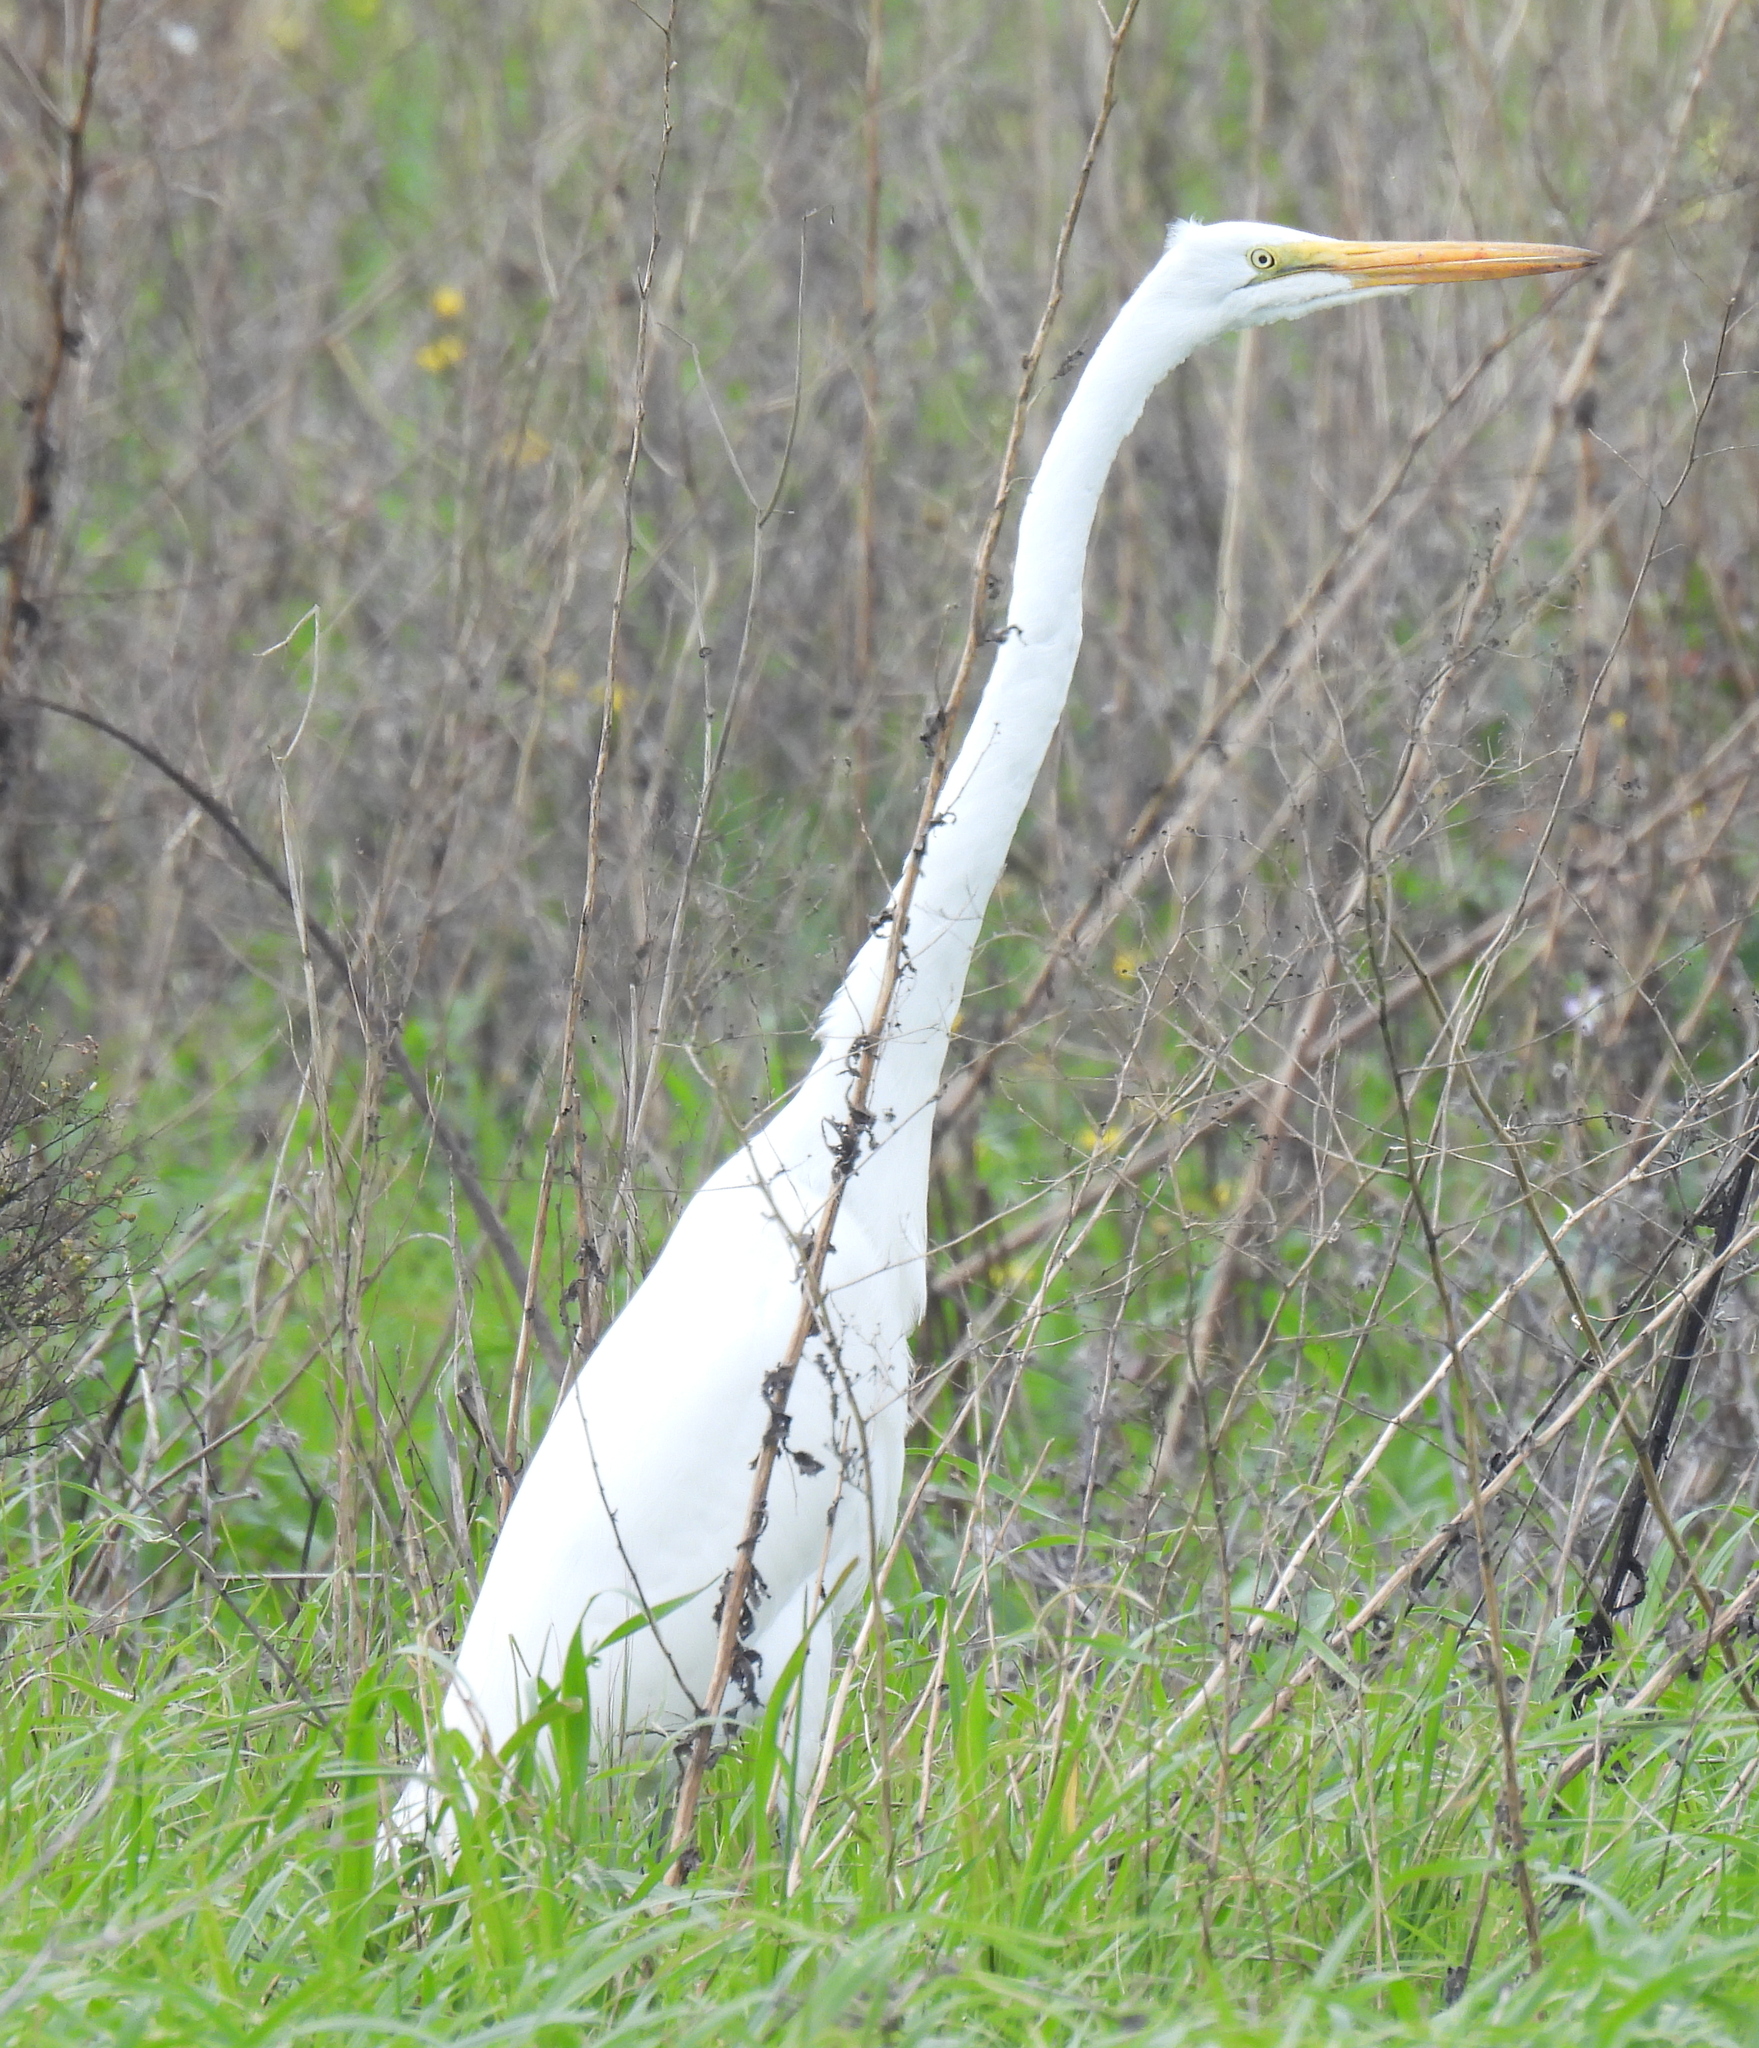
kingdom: Animalia
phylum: Chordata
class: Aves
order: Pelecaniformes
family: Ardeidae
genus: Ardea
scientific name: Ardea alba
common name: Great egret
